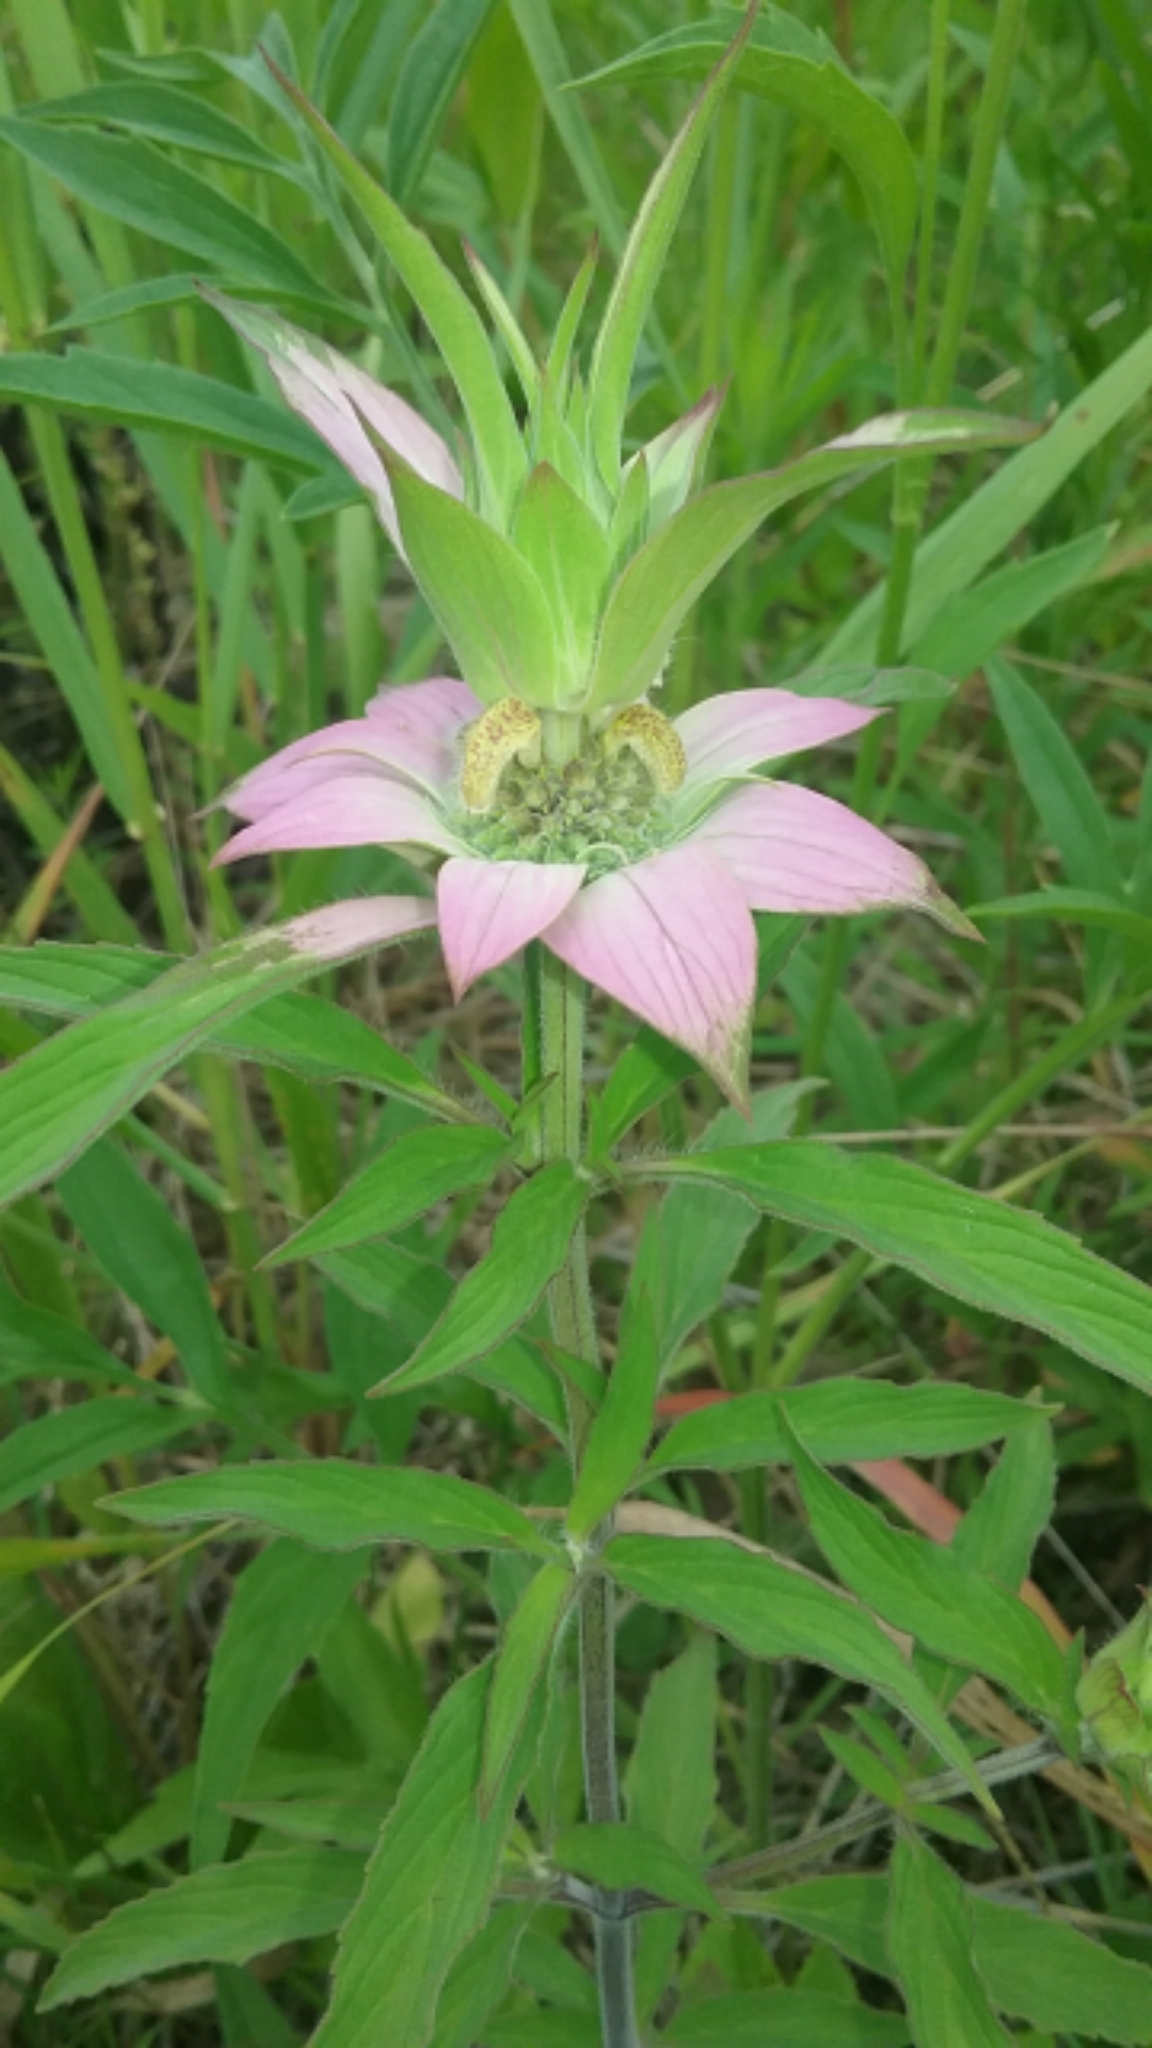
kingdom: Plantae
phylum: Tracheophyta
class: Magnoliopsida
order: Lamiales
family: Lamiaceae
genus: Monarda
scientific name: Monarda punctata
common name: Dotted monarda
